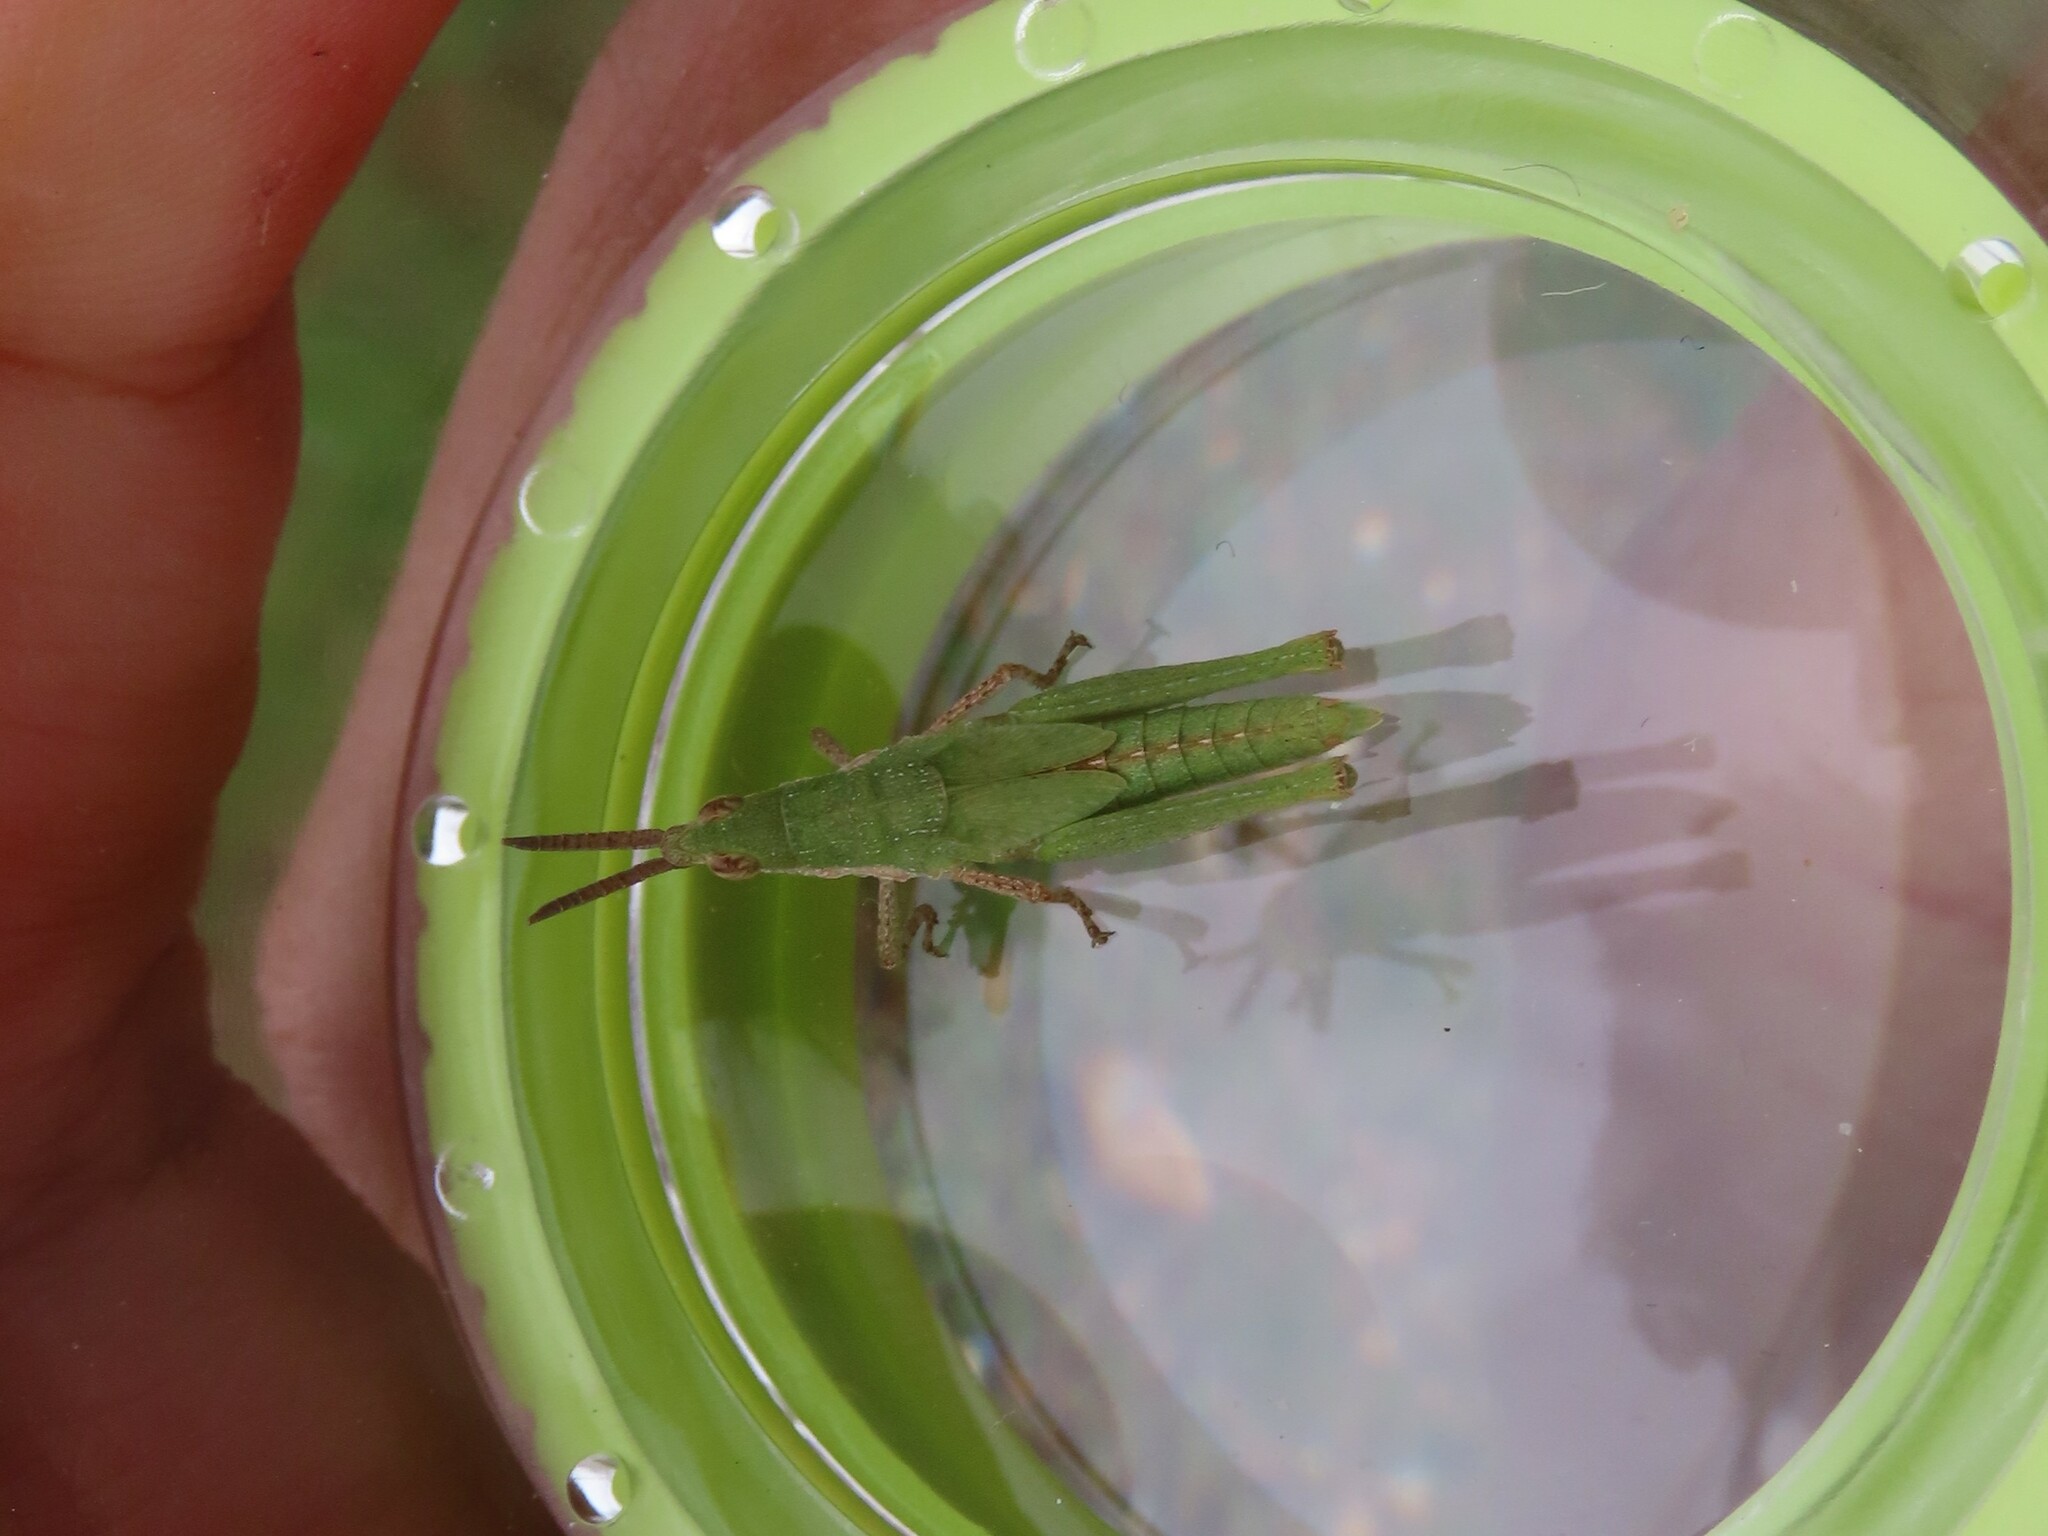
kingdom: Animalia
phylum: Arthropoda
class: Insecta
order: Orthoptera
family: Pyrgomorphidae
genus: Pyrgomorpha
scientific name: Pyrgomorpha conica
